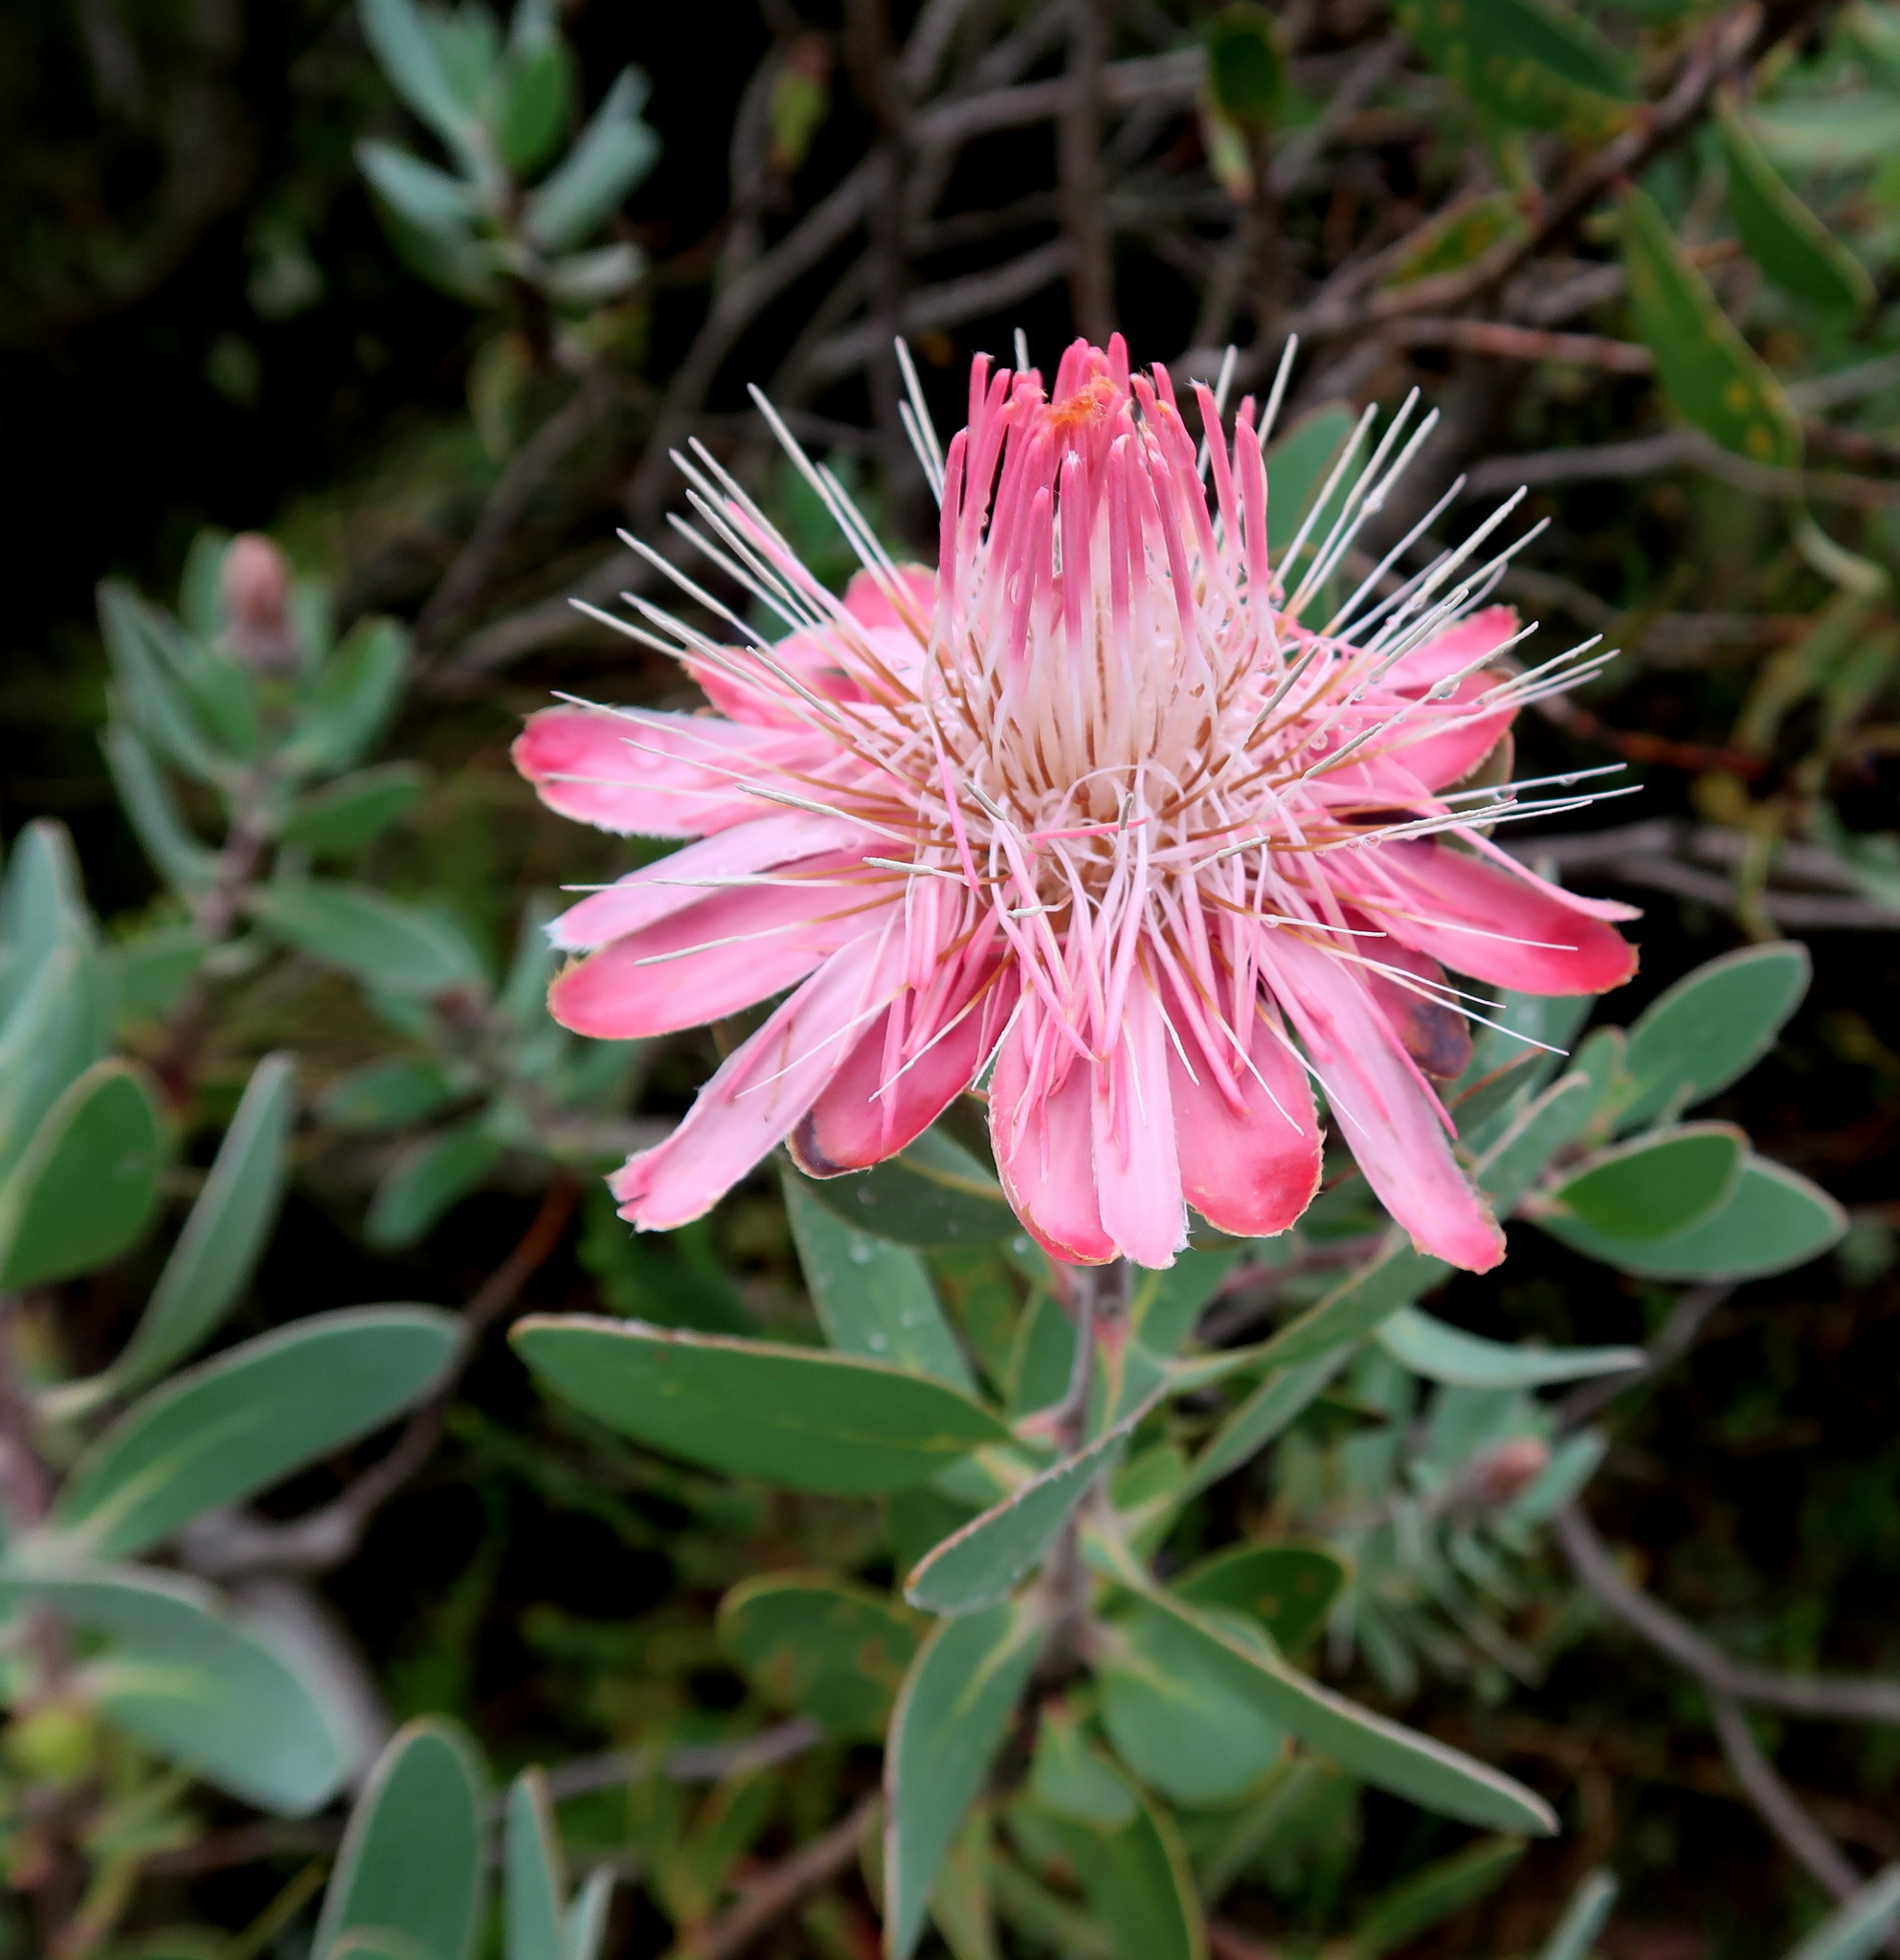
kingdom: Plantae
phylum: Tracheophyta
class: Magnoliopsida
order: Proteales
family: Proteaceae
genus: Protea
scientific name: Protea punctata
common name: Water sugarbush
